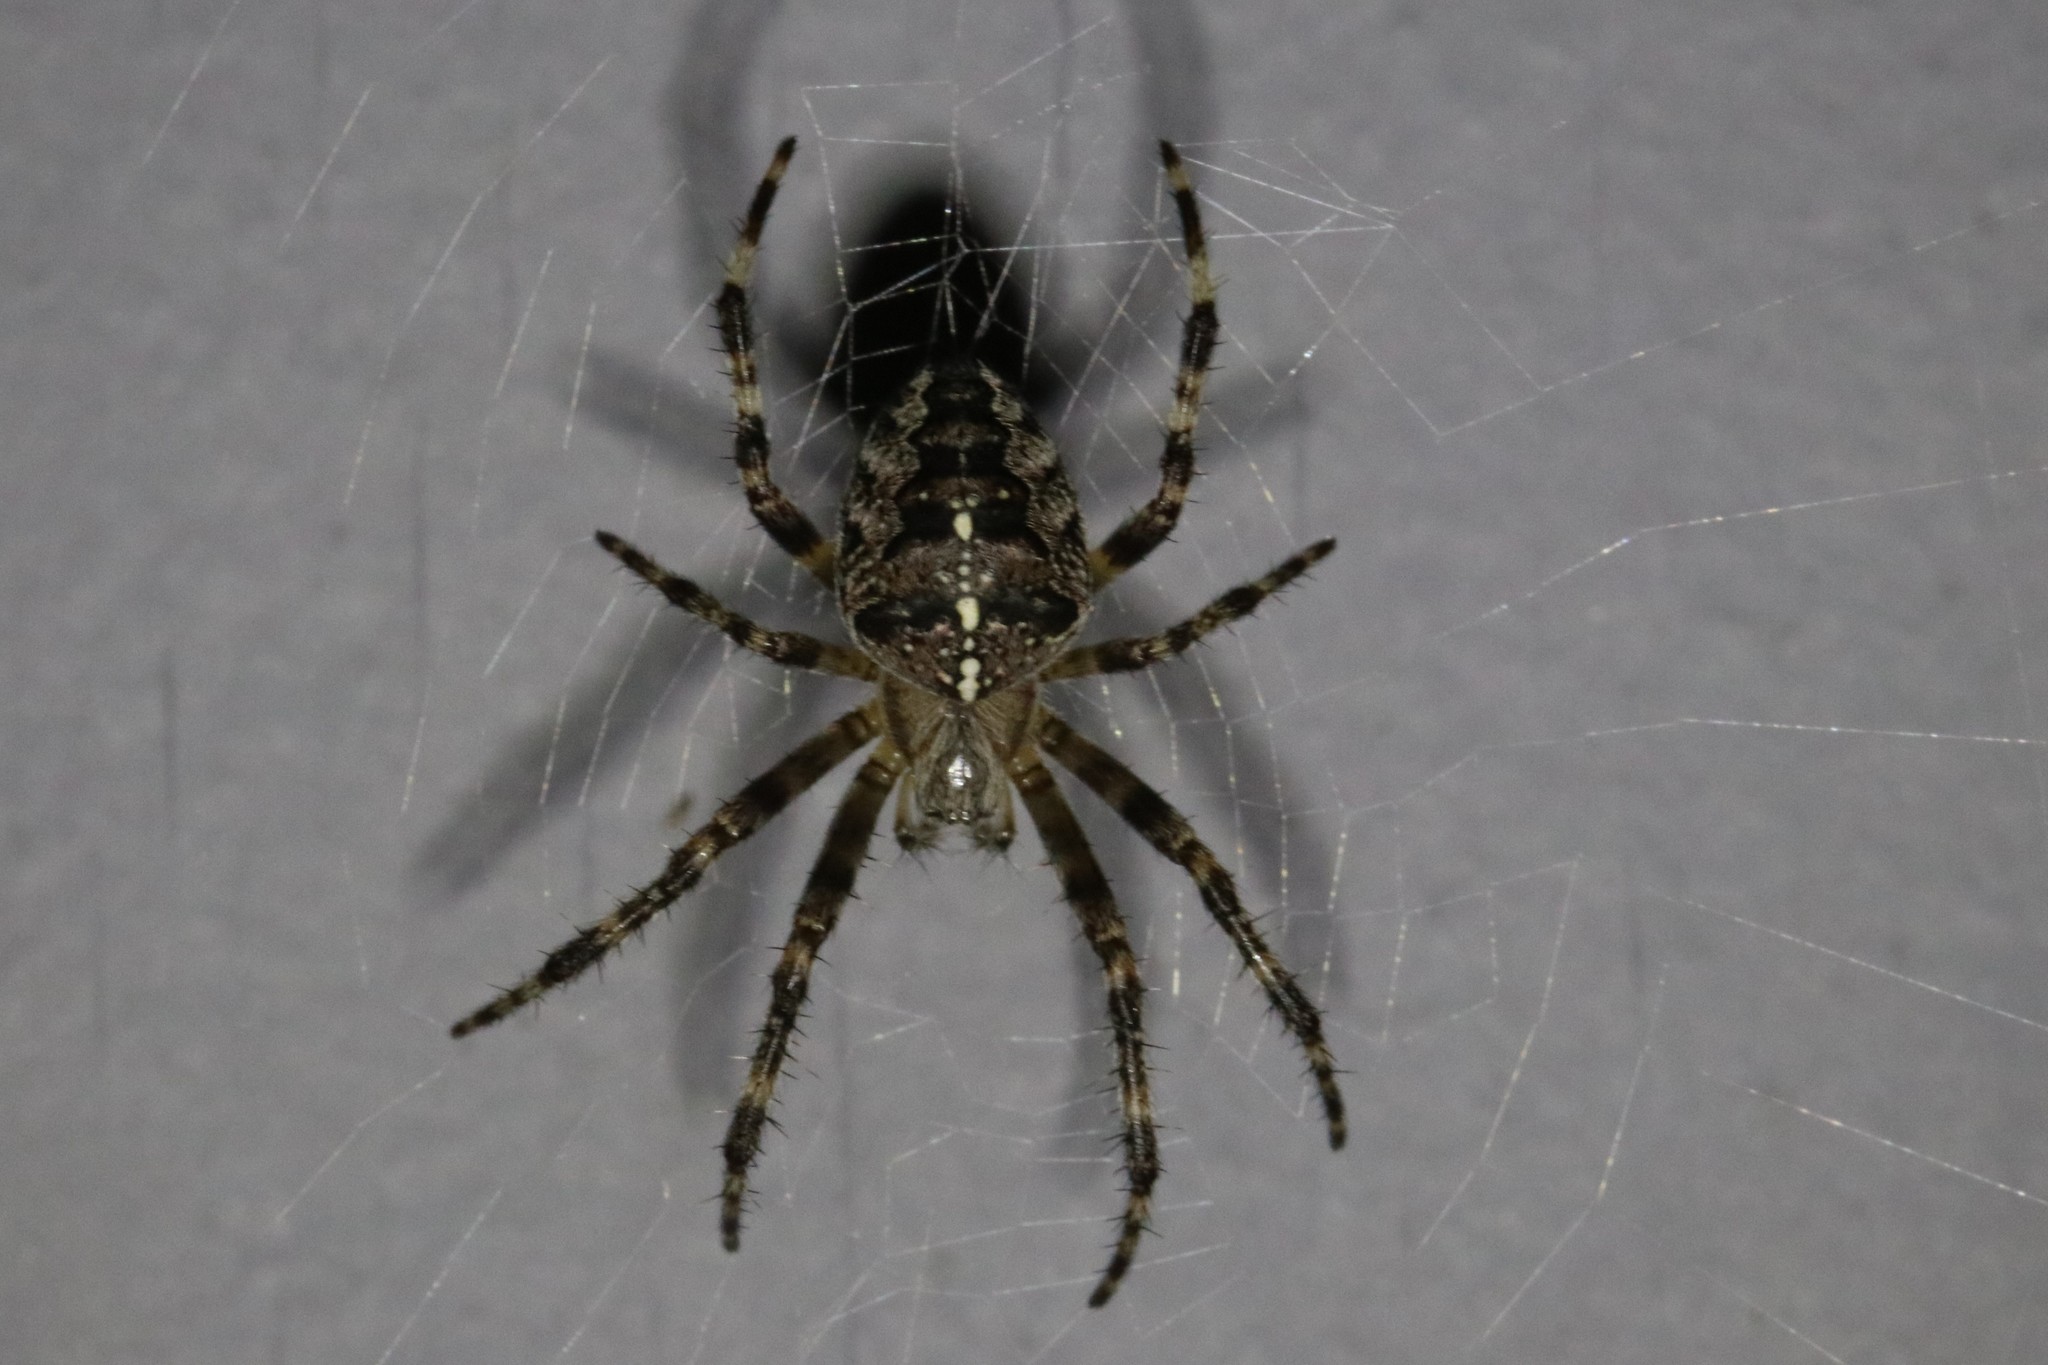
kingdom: Animalia
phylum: Arthropoda
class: Arachnida
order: Araneae
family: Araneidae
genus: Araneus
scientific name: Araneus diadematus
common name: Cross orbweaver
